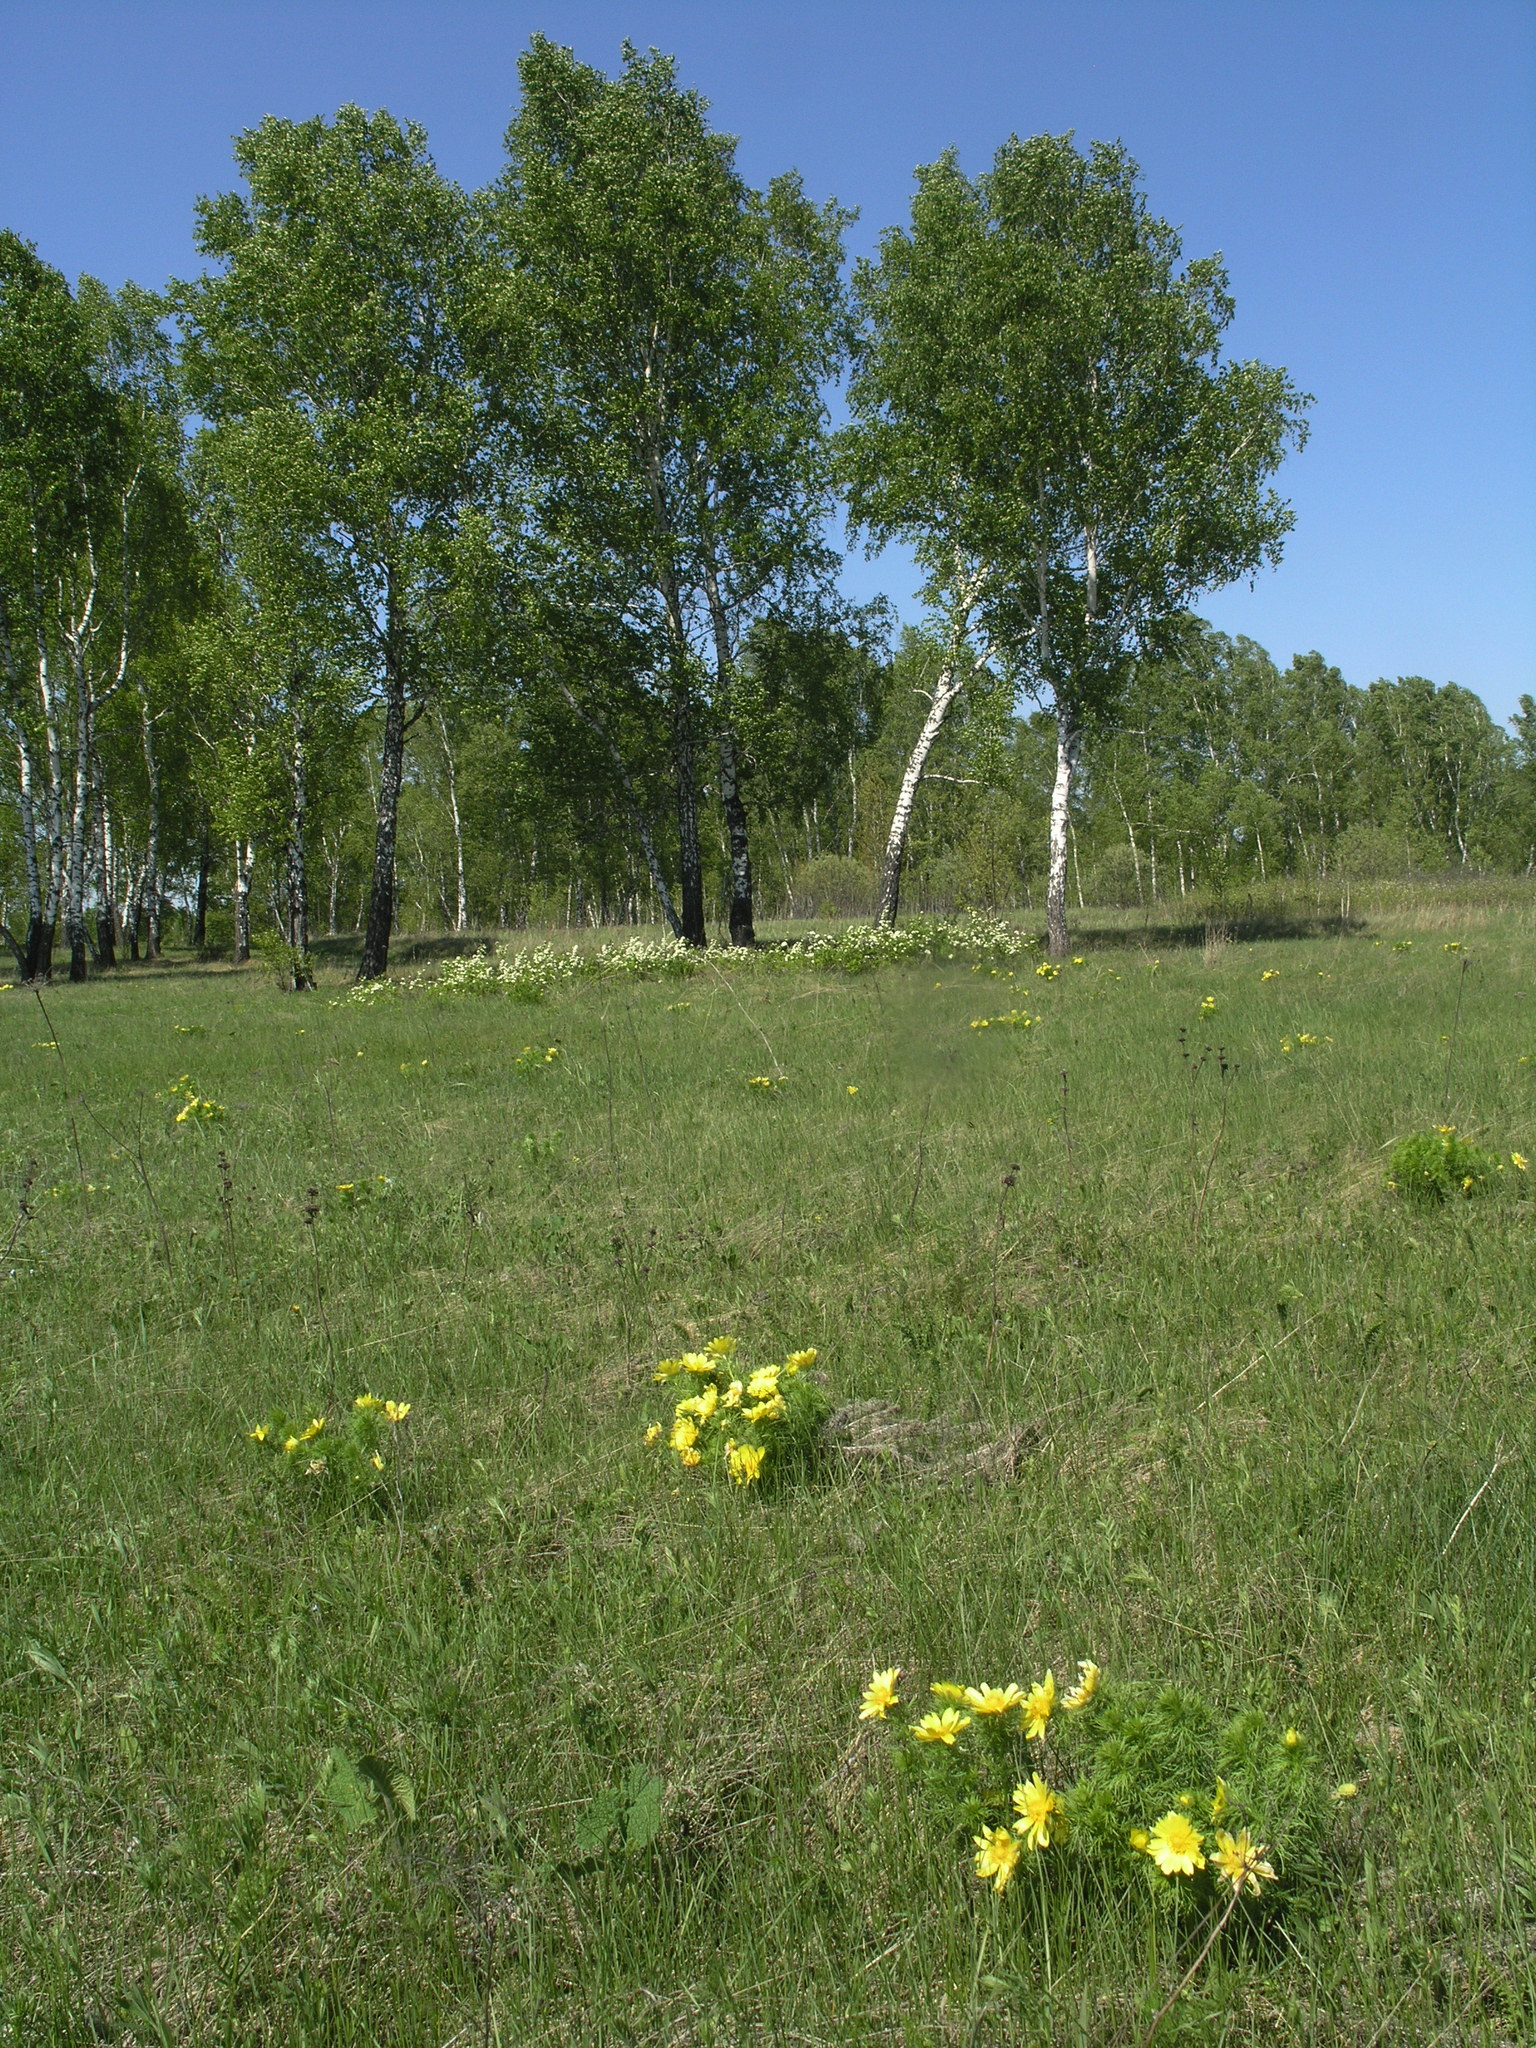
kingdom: Plantae
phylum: Tracheophyta
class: Magnoliopsida
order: Ranunculales
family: Ranunculaceae
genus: Adonis
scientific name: Adonis vernalis
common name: Yellow pheasants-eye
